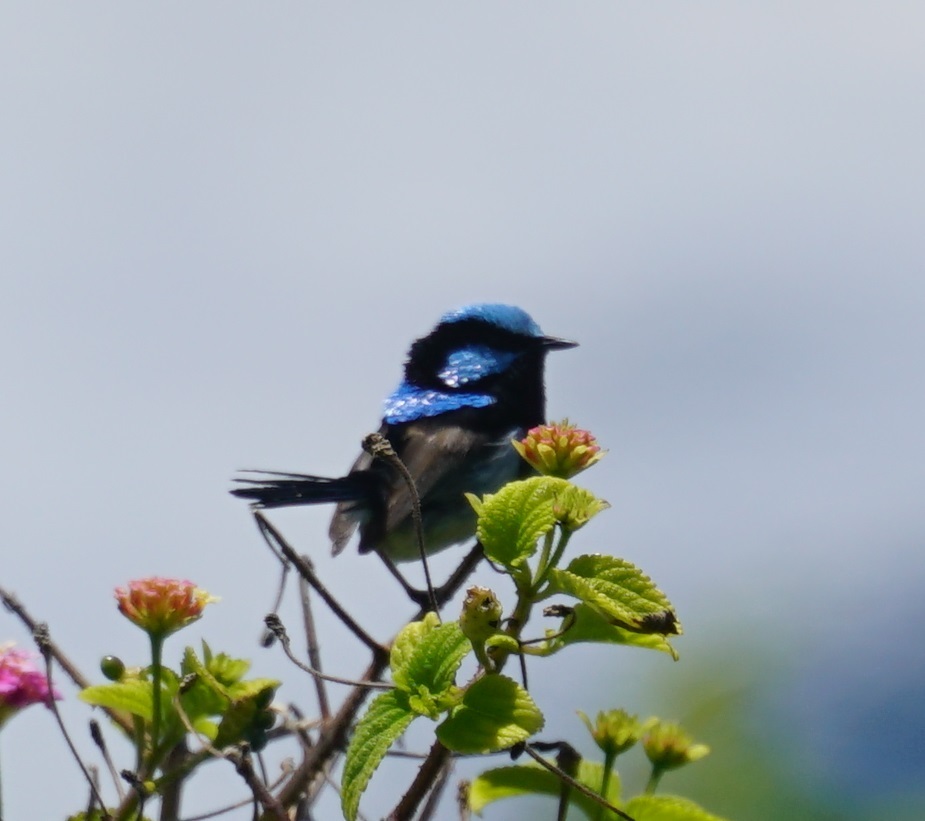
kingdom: Animalia
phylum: Chordata
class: Aves
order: Passeriformes
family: Maluridae
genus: Malurus
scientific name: Malurus cyaneus
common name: Superb fairywren
